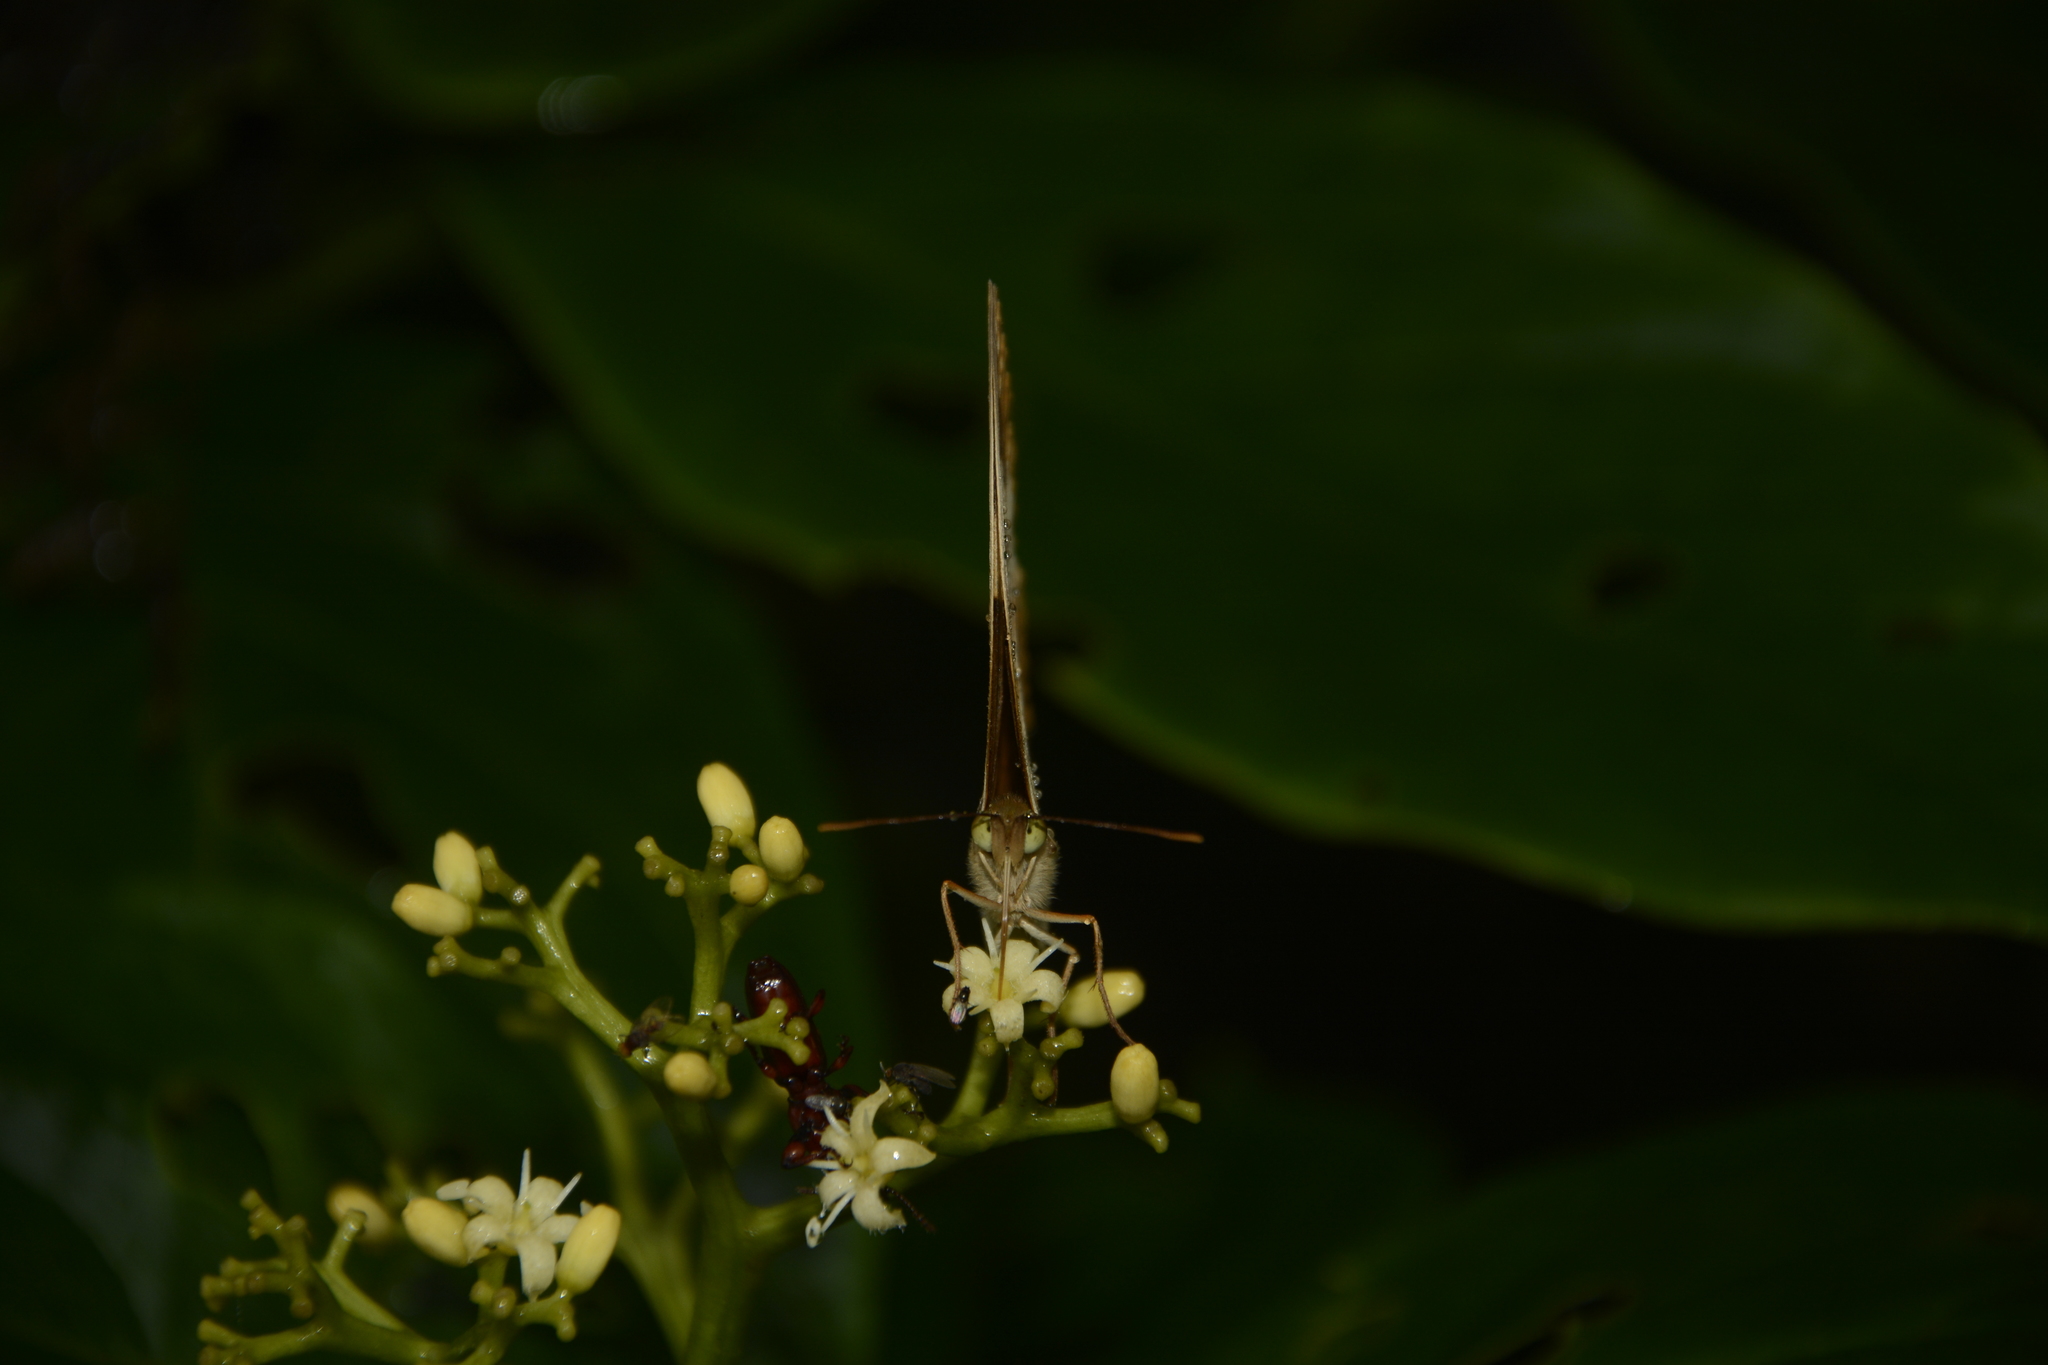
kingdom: Animalia
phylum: Arthropoda
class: Insecta
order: Lepidoptera
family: Nymphalidae
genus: Cupha
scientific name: Cupha erymanthis
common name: Rustic
